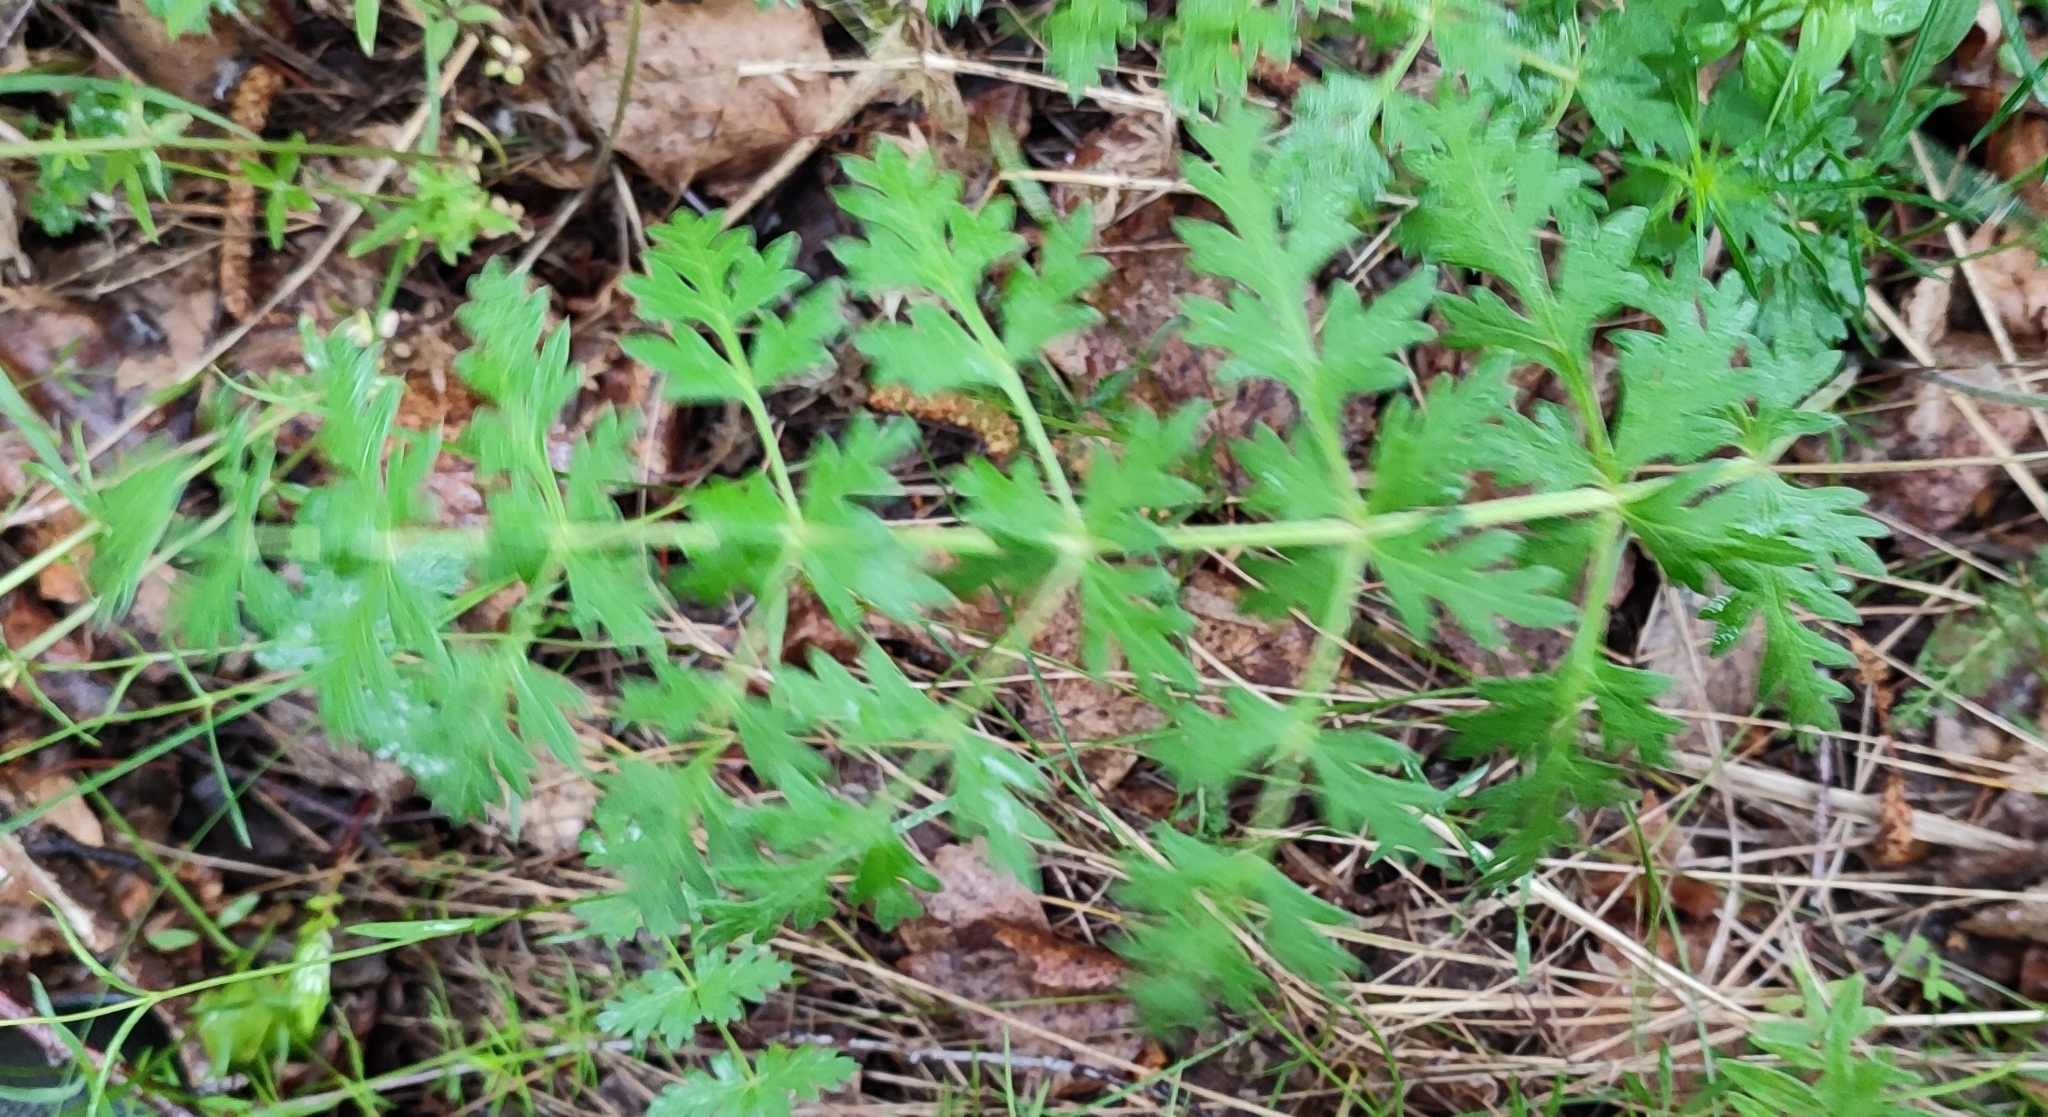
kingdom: Plantae
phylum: Tracheophyta
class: Magnoliopsida
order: Apiales
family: Apiaceae
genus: Seseli
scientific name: Seseli libanotis
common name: Mooncarrot
